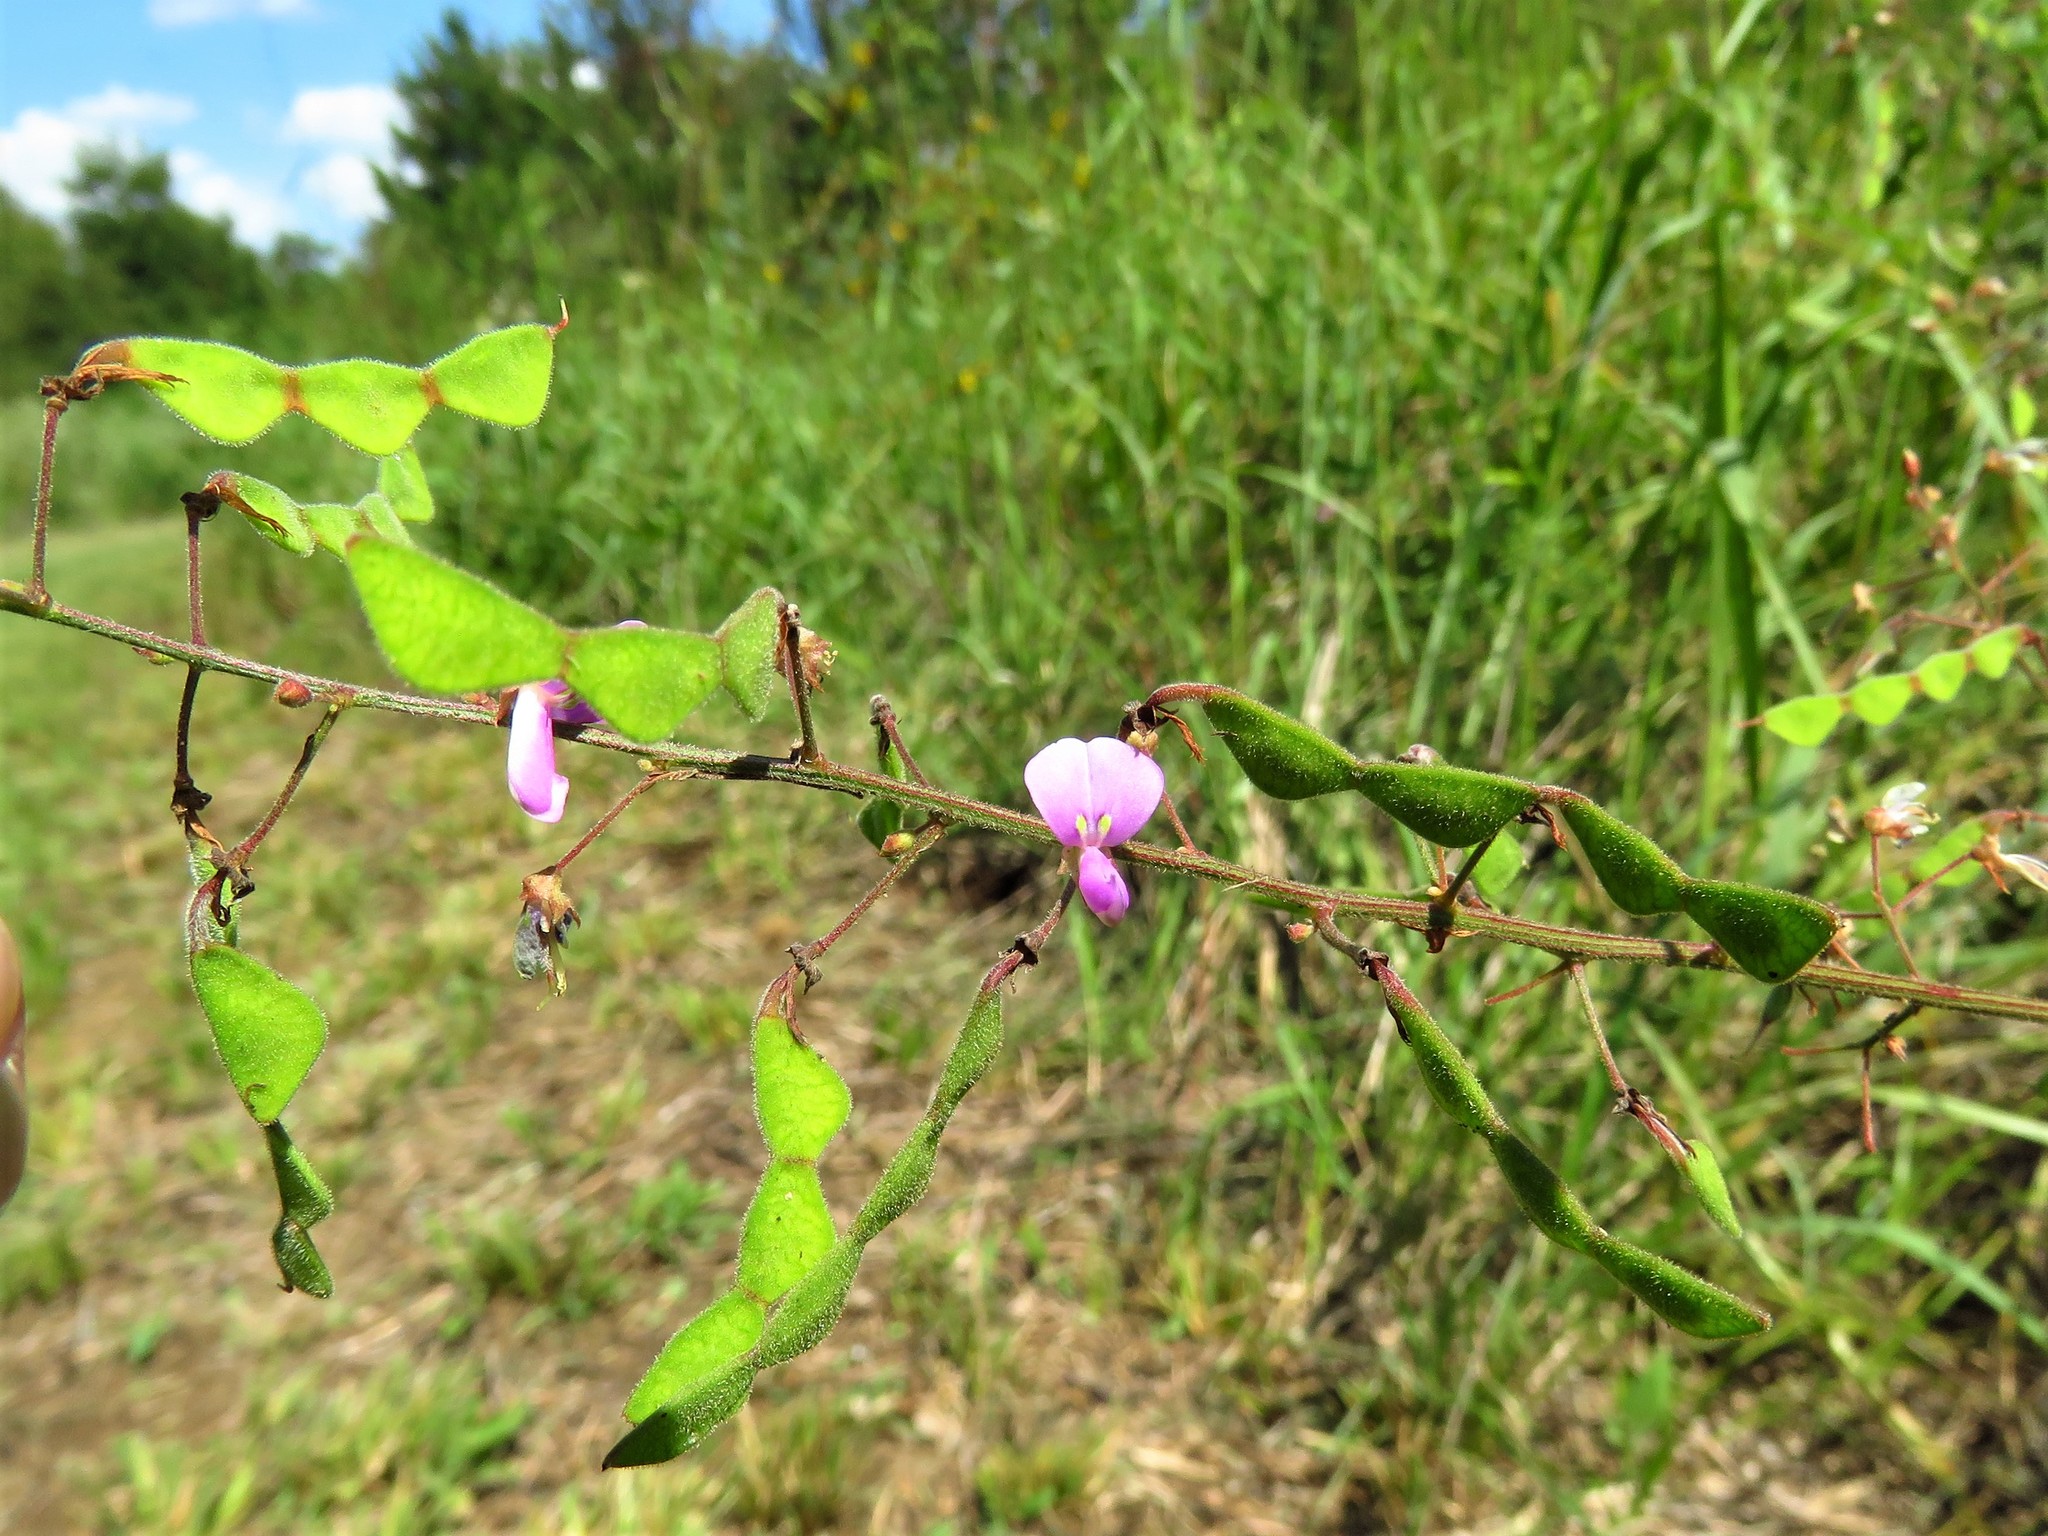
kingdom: Plantae
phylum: Tracheophyta
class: Magnoliopsida
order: Fabales
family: Fabaceae
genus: Desmodium
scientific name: Desmodium paniculatum
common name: Panicled tick-clover
